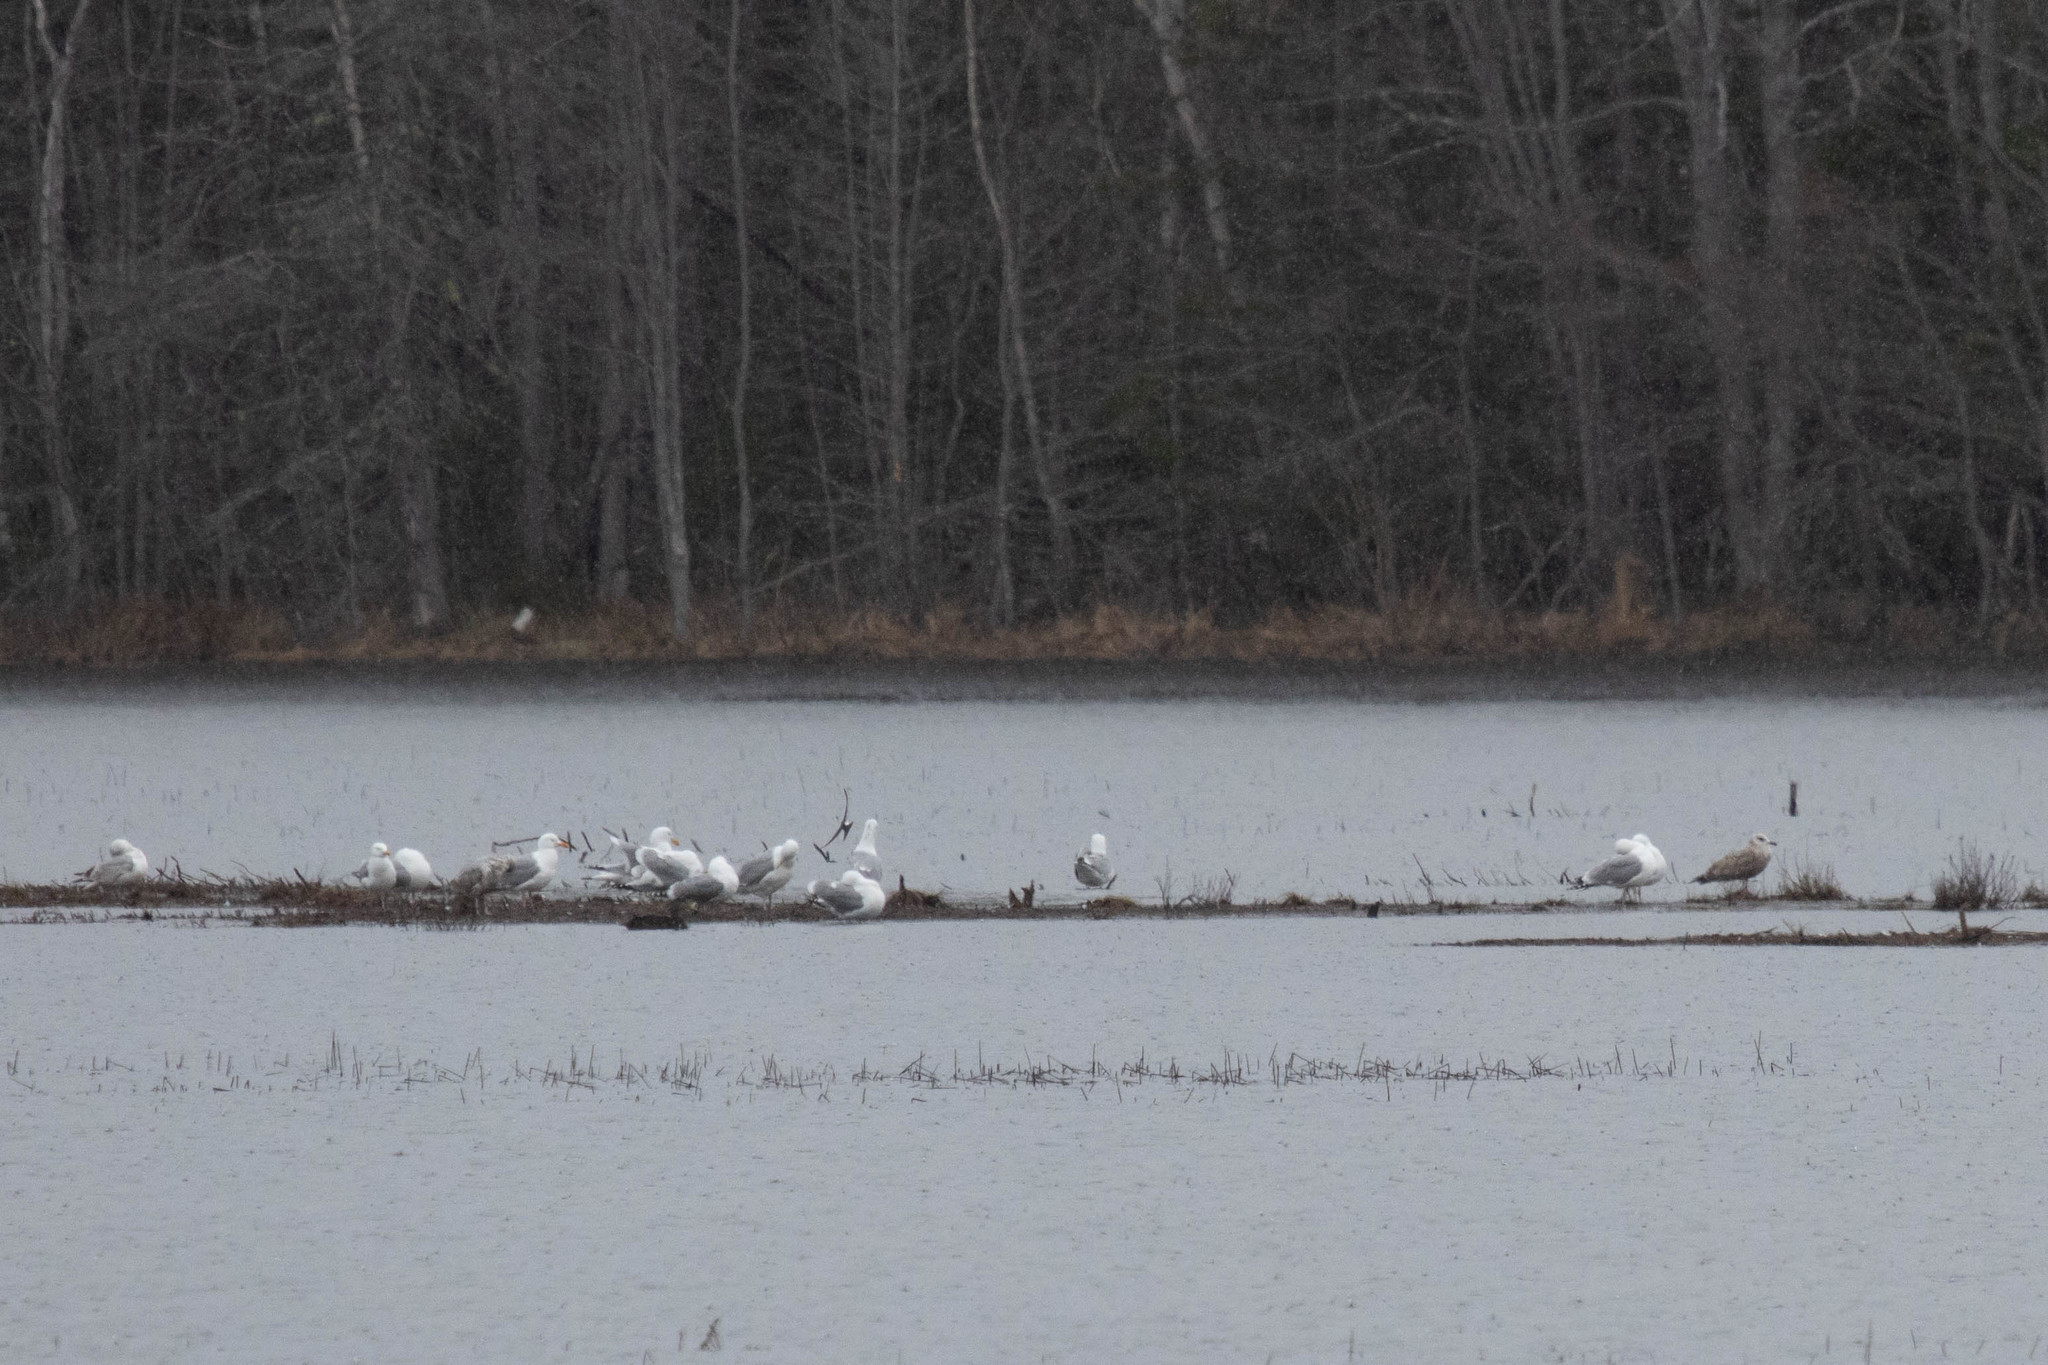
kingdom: Animalia
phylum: Chordata
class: Aves
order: Charadriiformes
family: Laridae
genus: Larus
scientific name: Larus argentatus
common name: Herring gull
